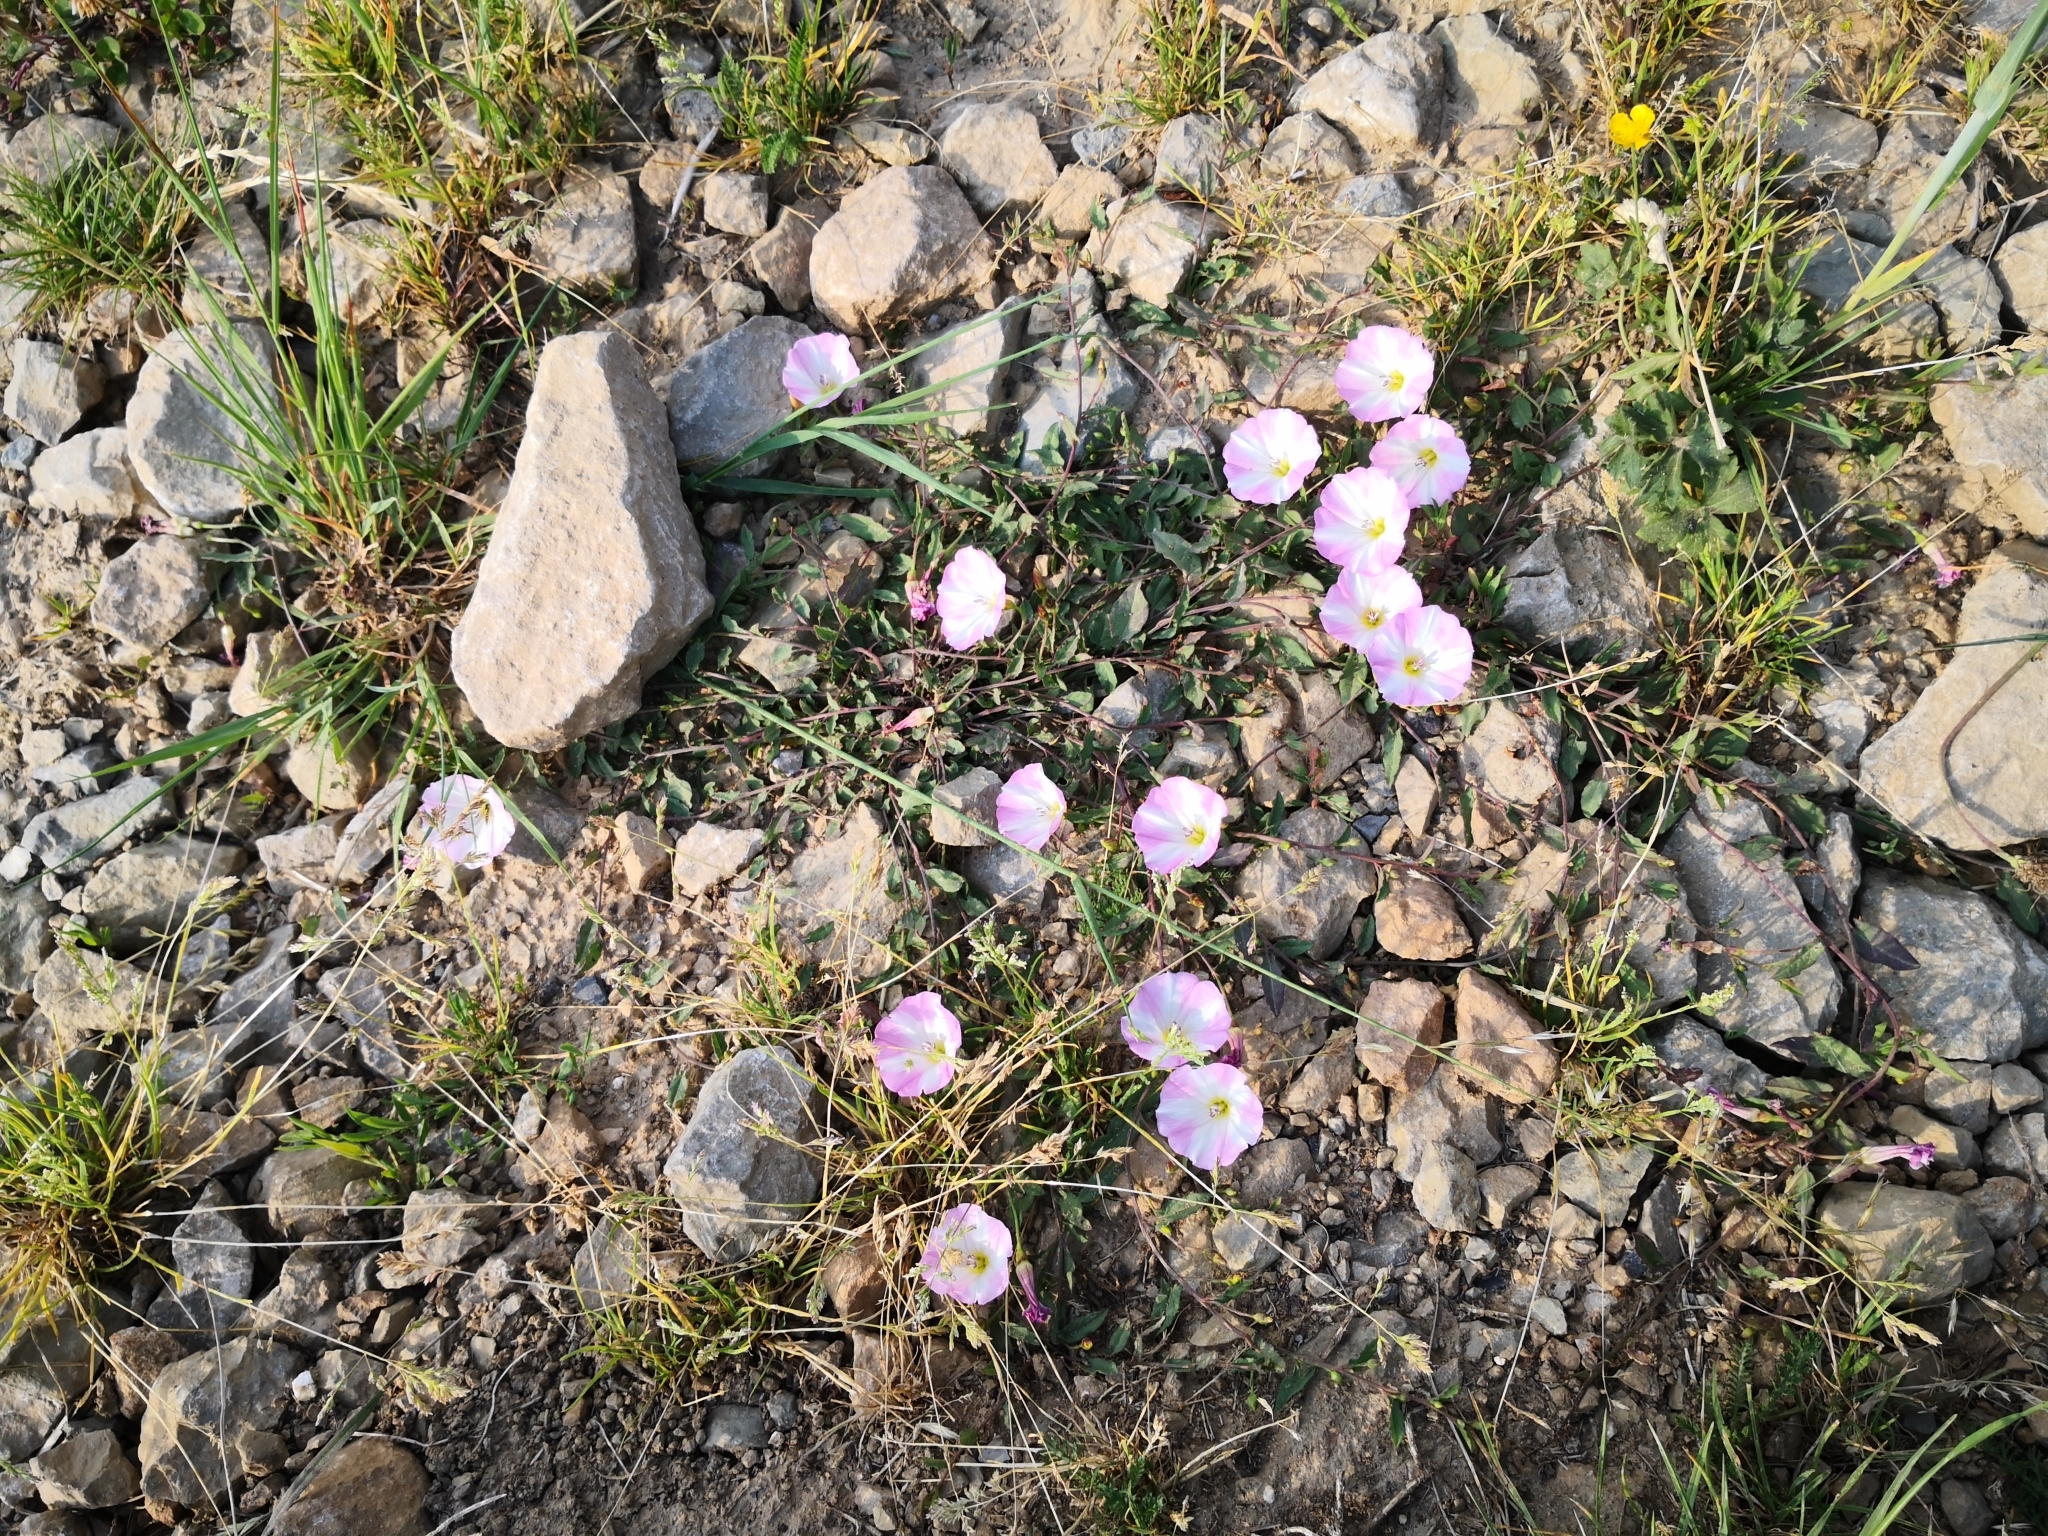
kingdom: Plantae
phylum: Tracheophyta
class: Magnoliopsida
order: Solanales
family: Convolvulaceae
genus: Convolvulus
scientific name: Convolvulus arvensis
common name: Field bindweed
